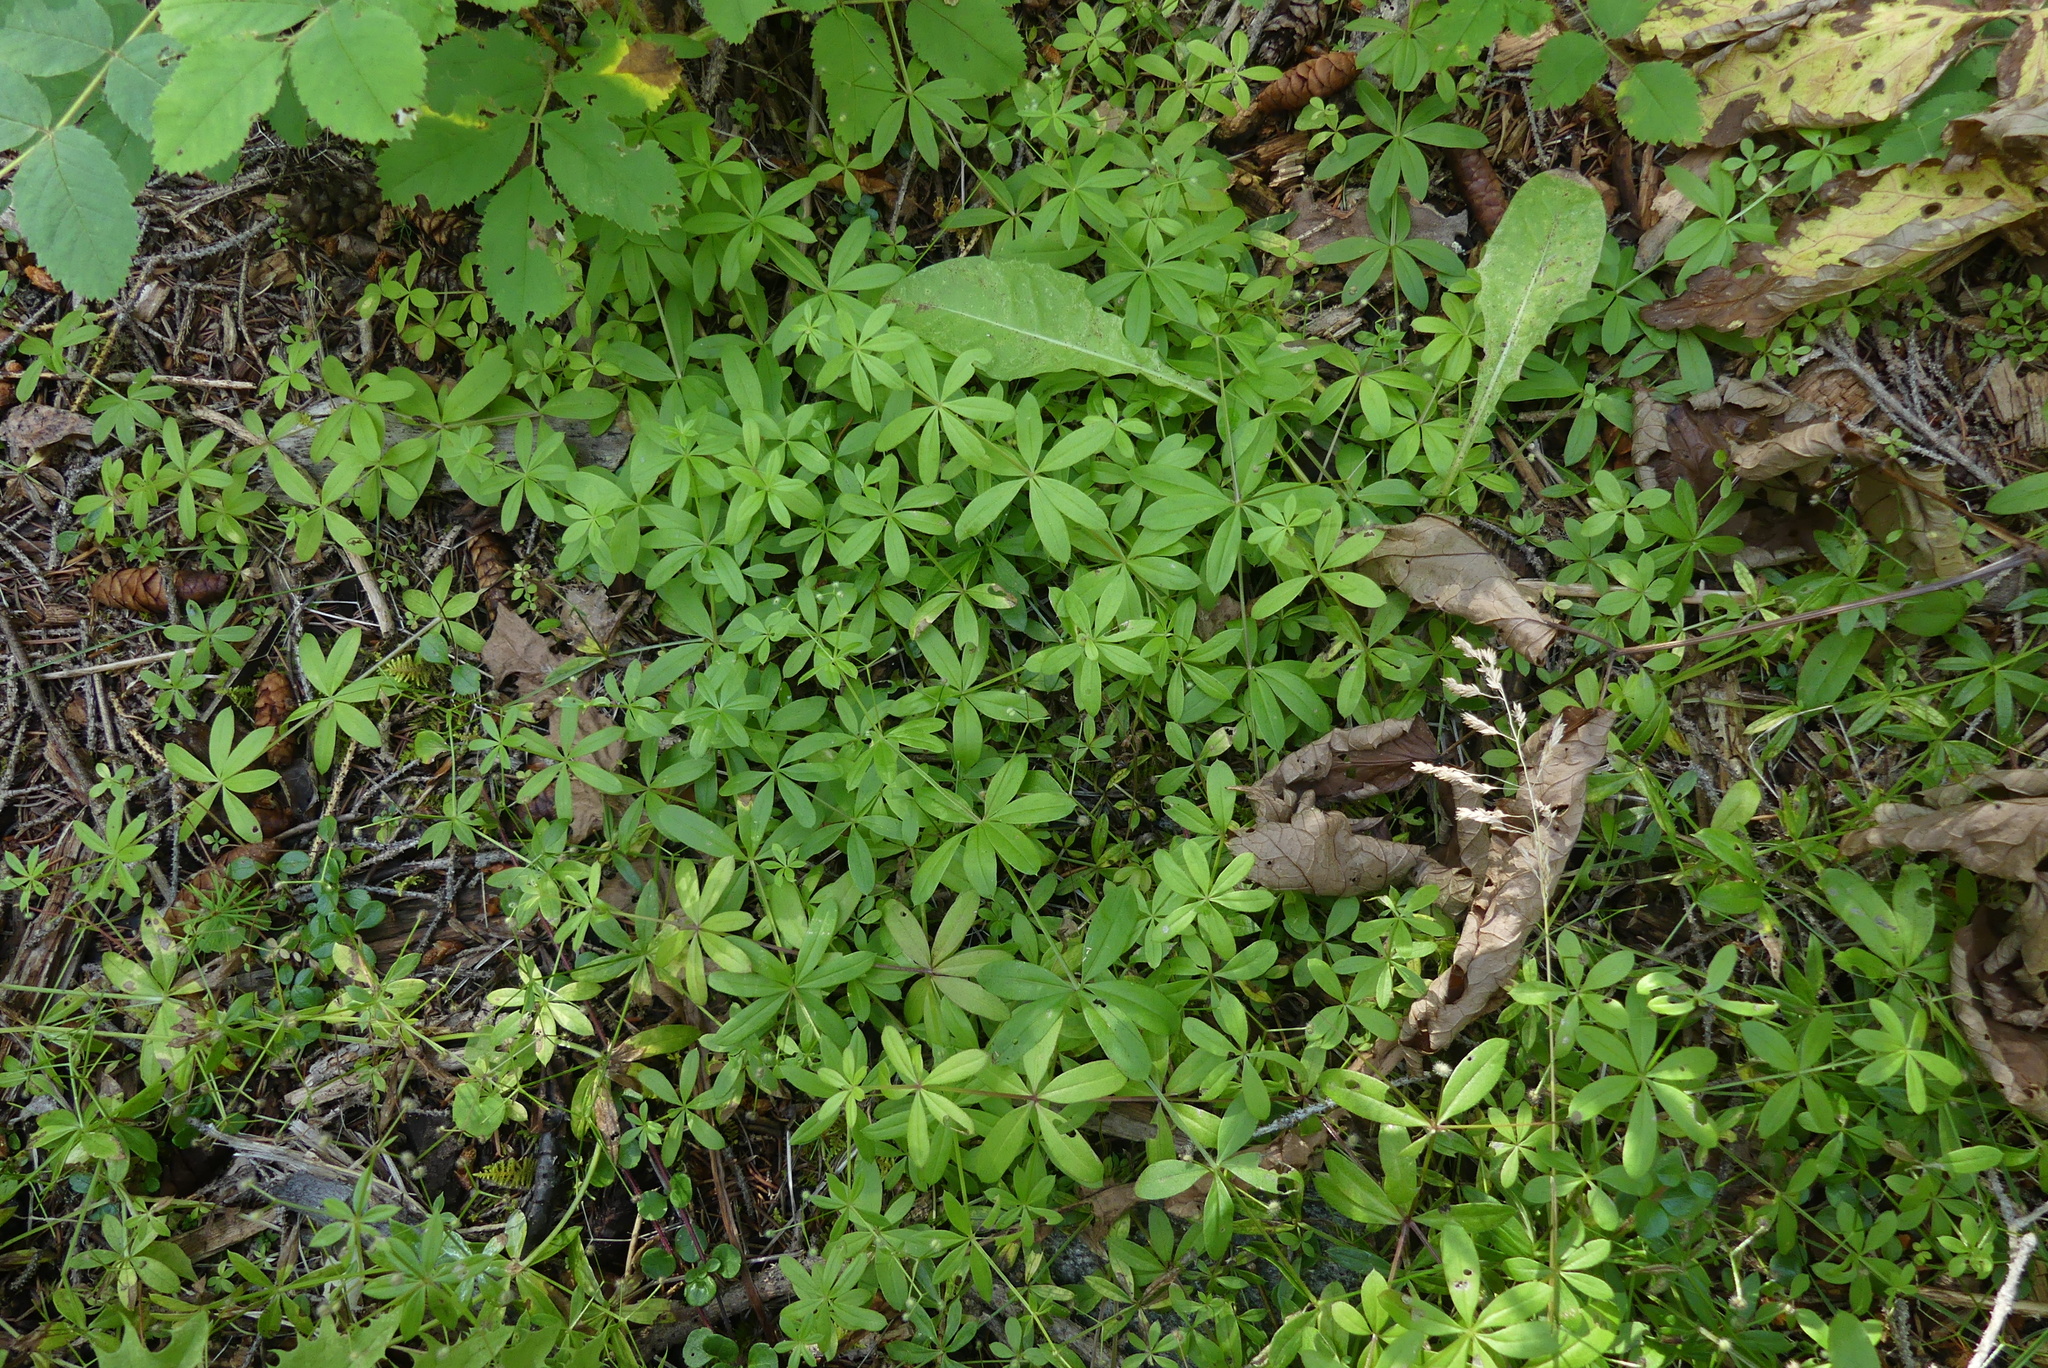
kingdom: Plantae
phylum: Tracheophyta
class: Magnoliopsida
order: Gentianales
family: Rubiaceae
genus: Galium
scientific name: Galium triflorum
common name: Fragrant bedstraw
